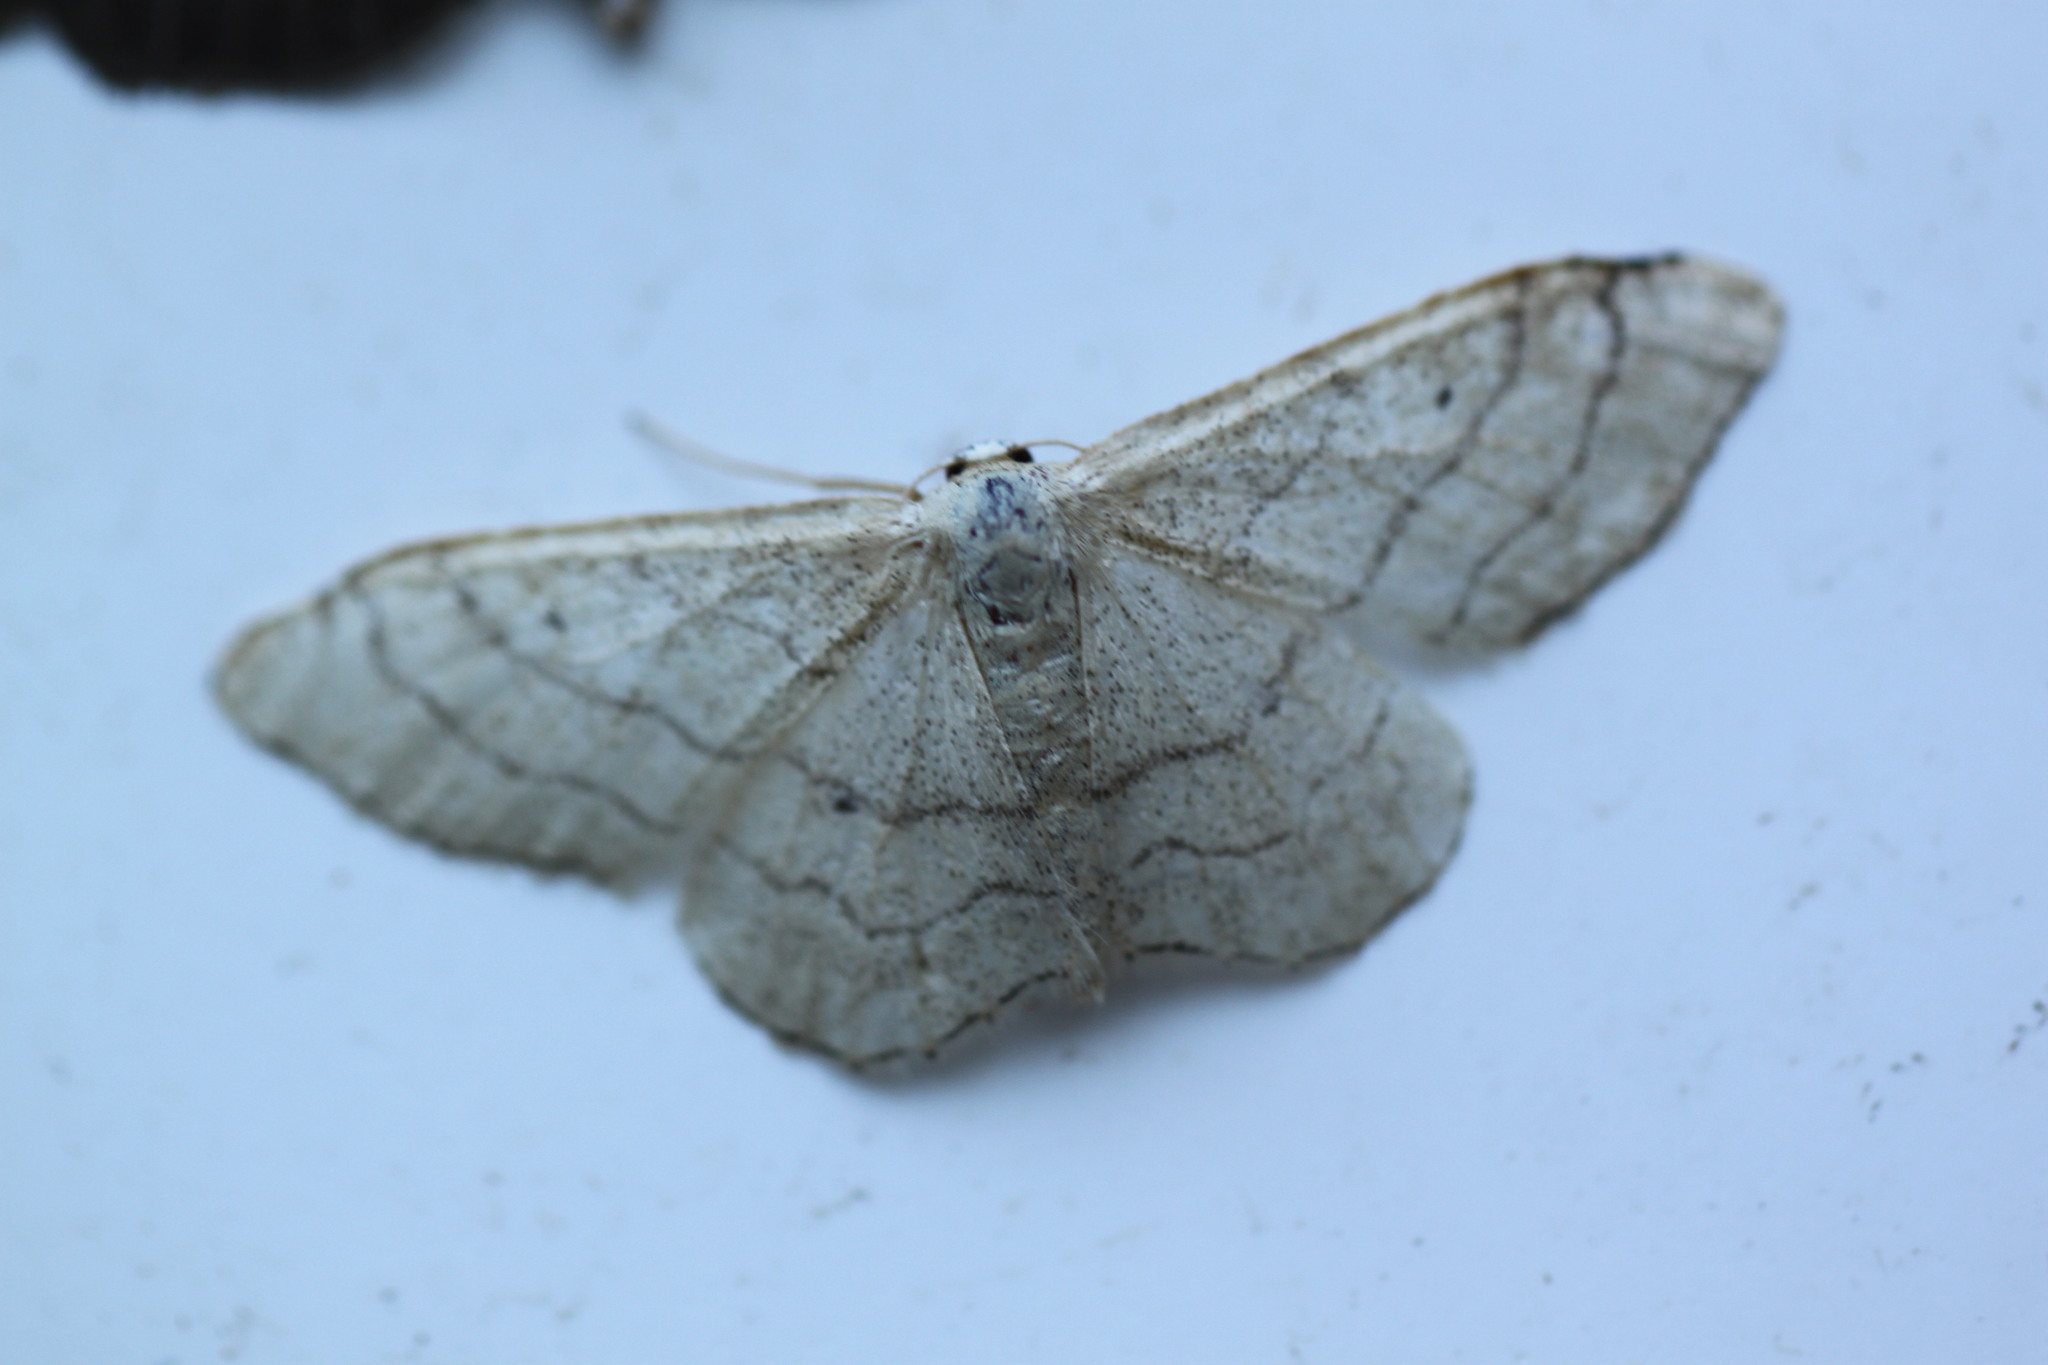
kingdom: Animalia
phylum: Arthropoda
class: Insecta
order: Lepidoptera
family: Geometridae
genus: Idaea
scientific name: Idaea aversata
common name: Riband wave
